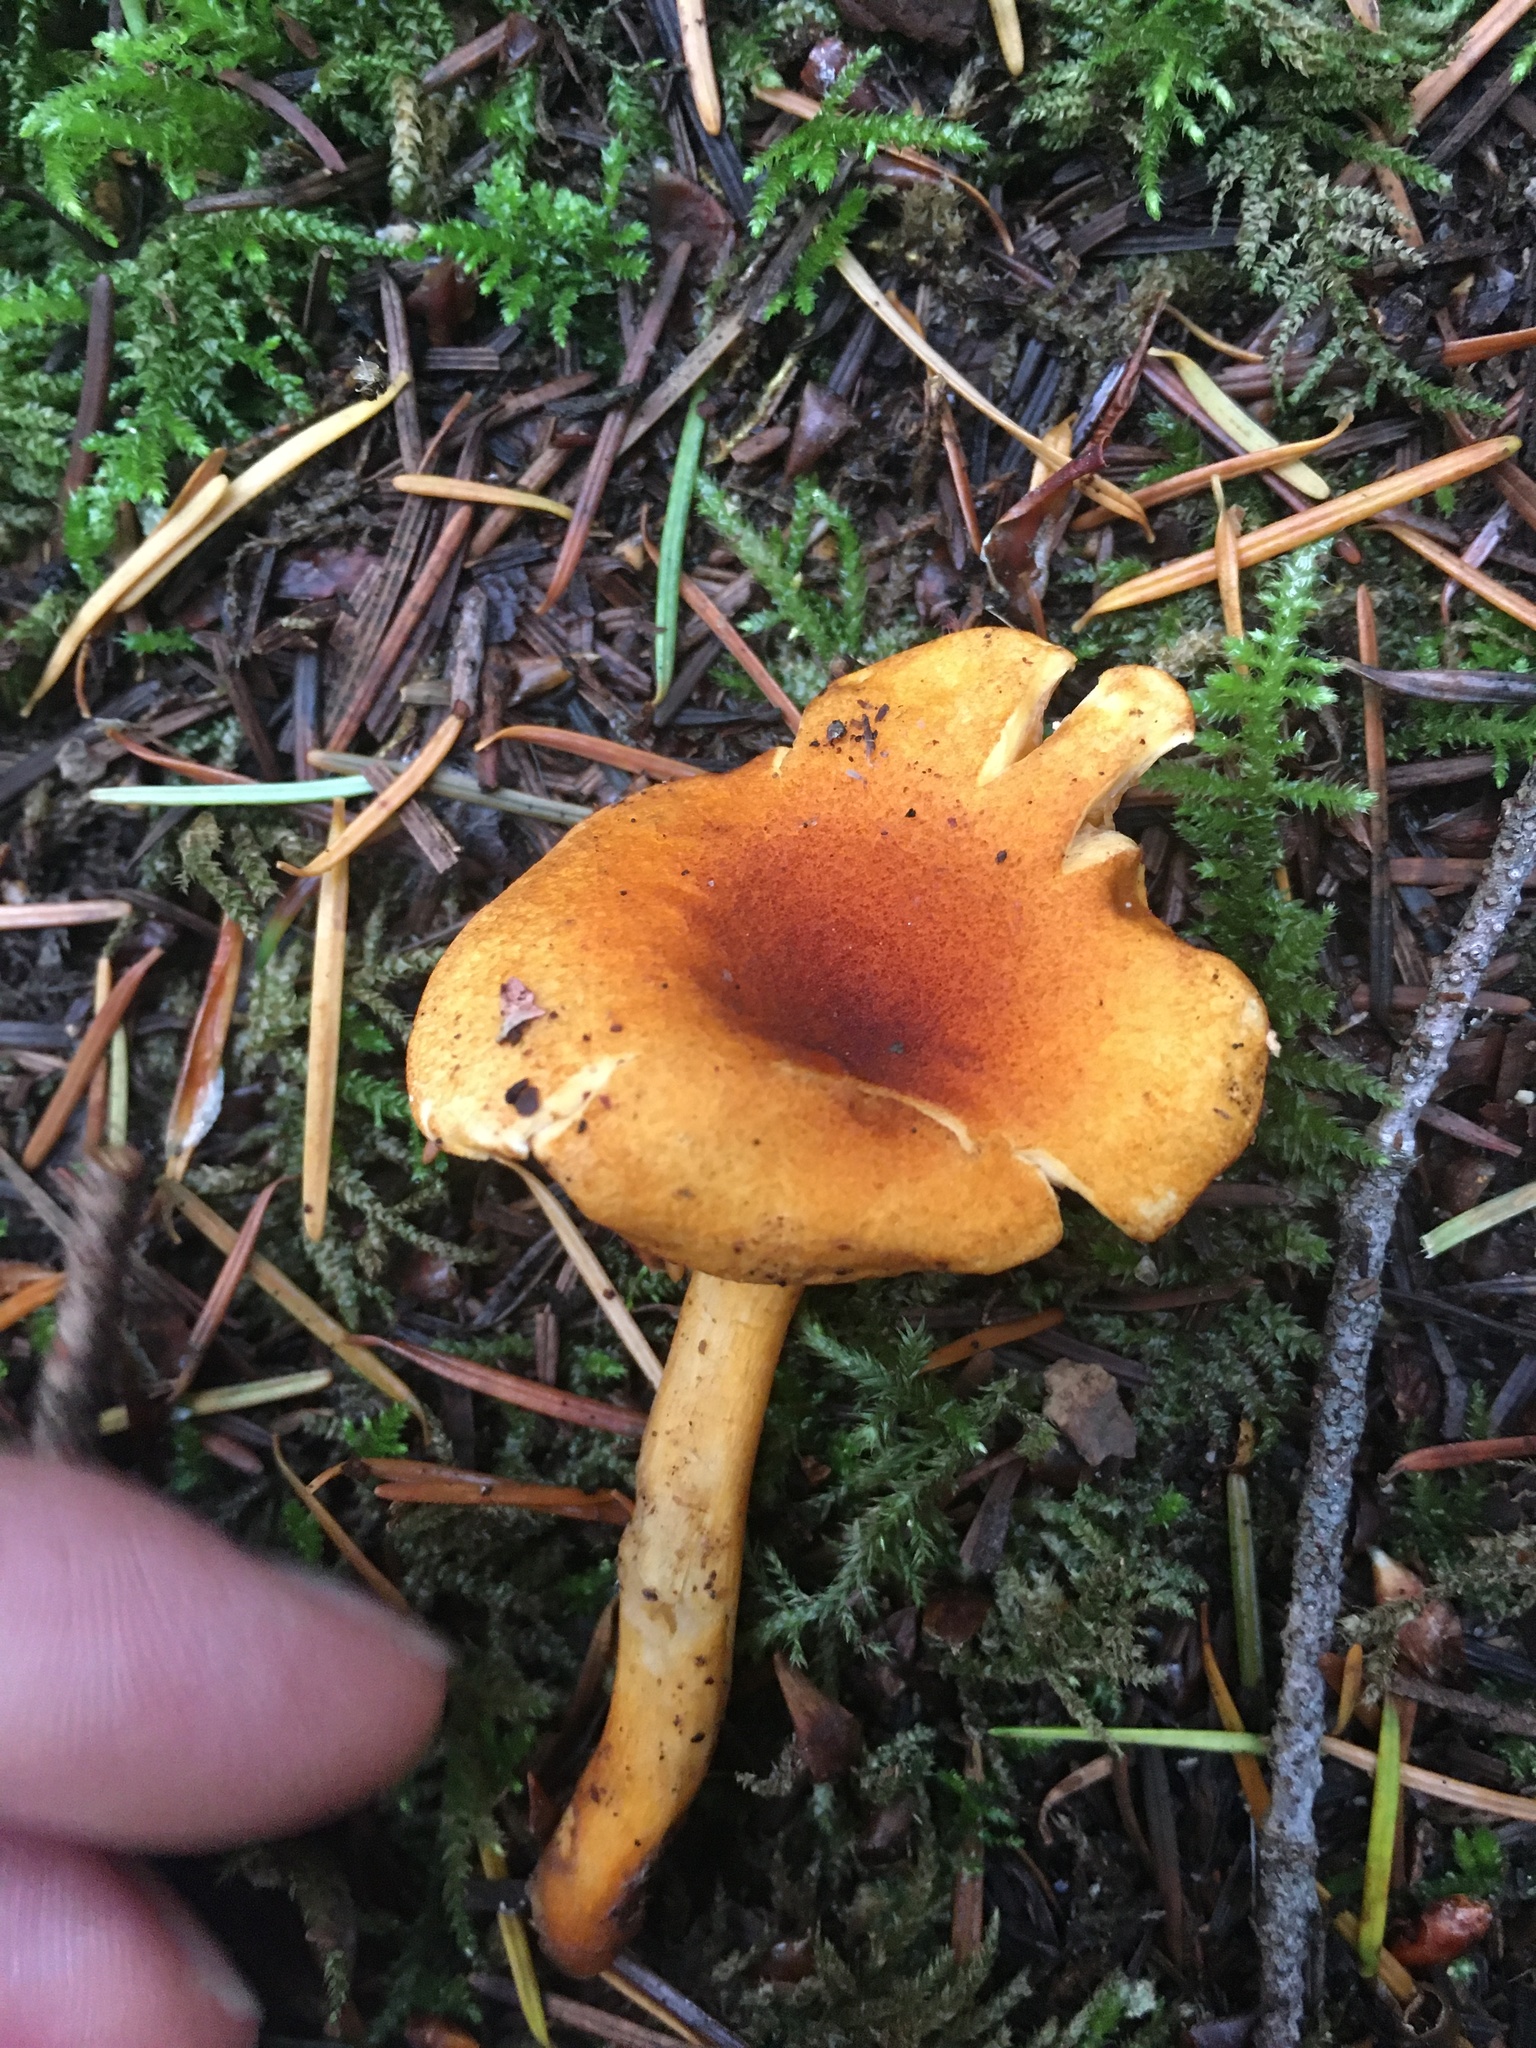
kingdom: Fungi
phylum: Basidiomycota
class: Agaricomycetes
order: Boletales
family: Hygrophoropsidaceae
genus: Hygrophoropsis
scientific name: Hygrophoropsis aurantiaca
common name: False chanterelle
